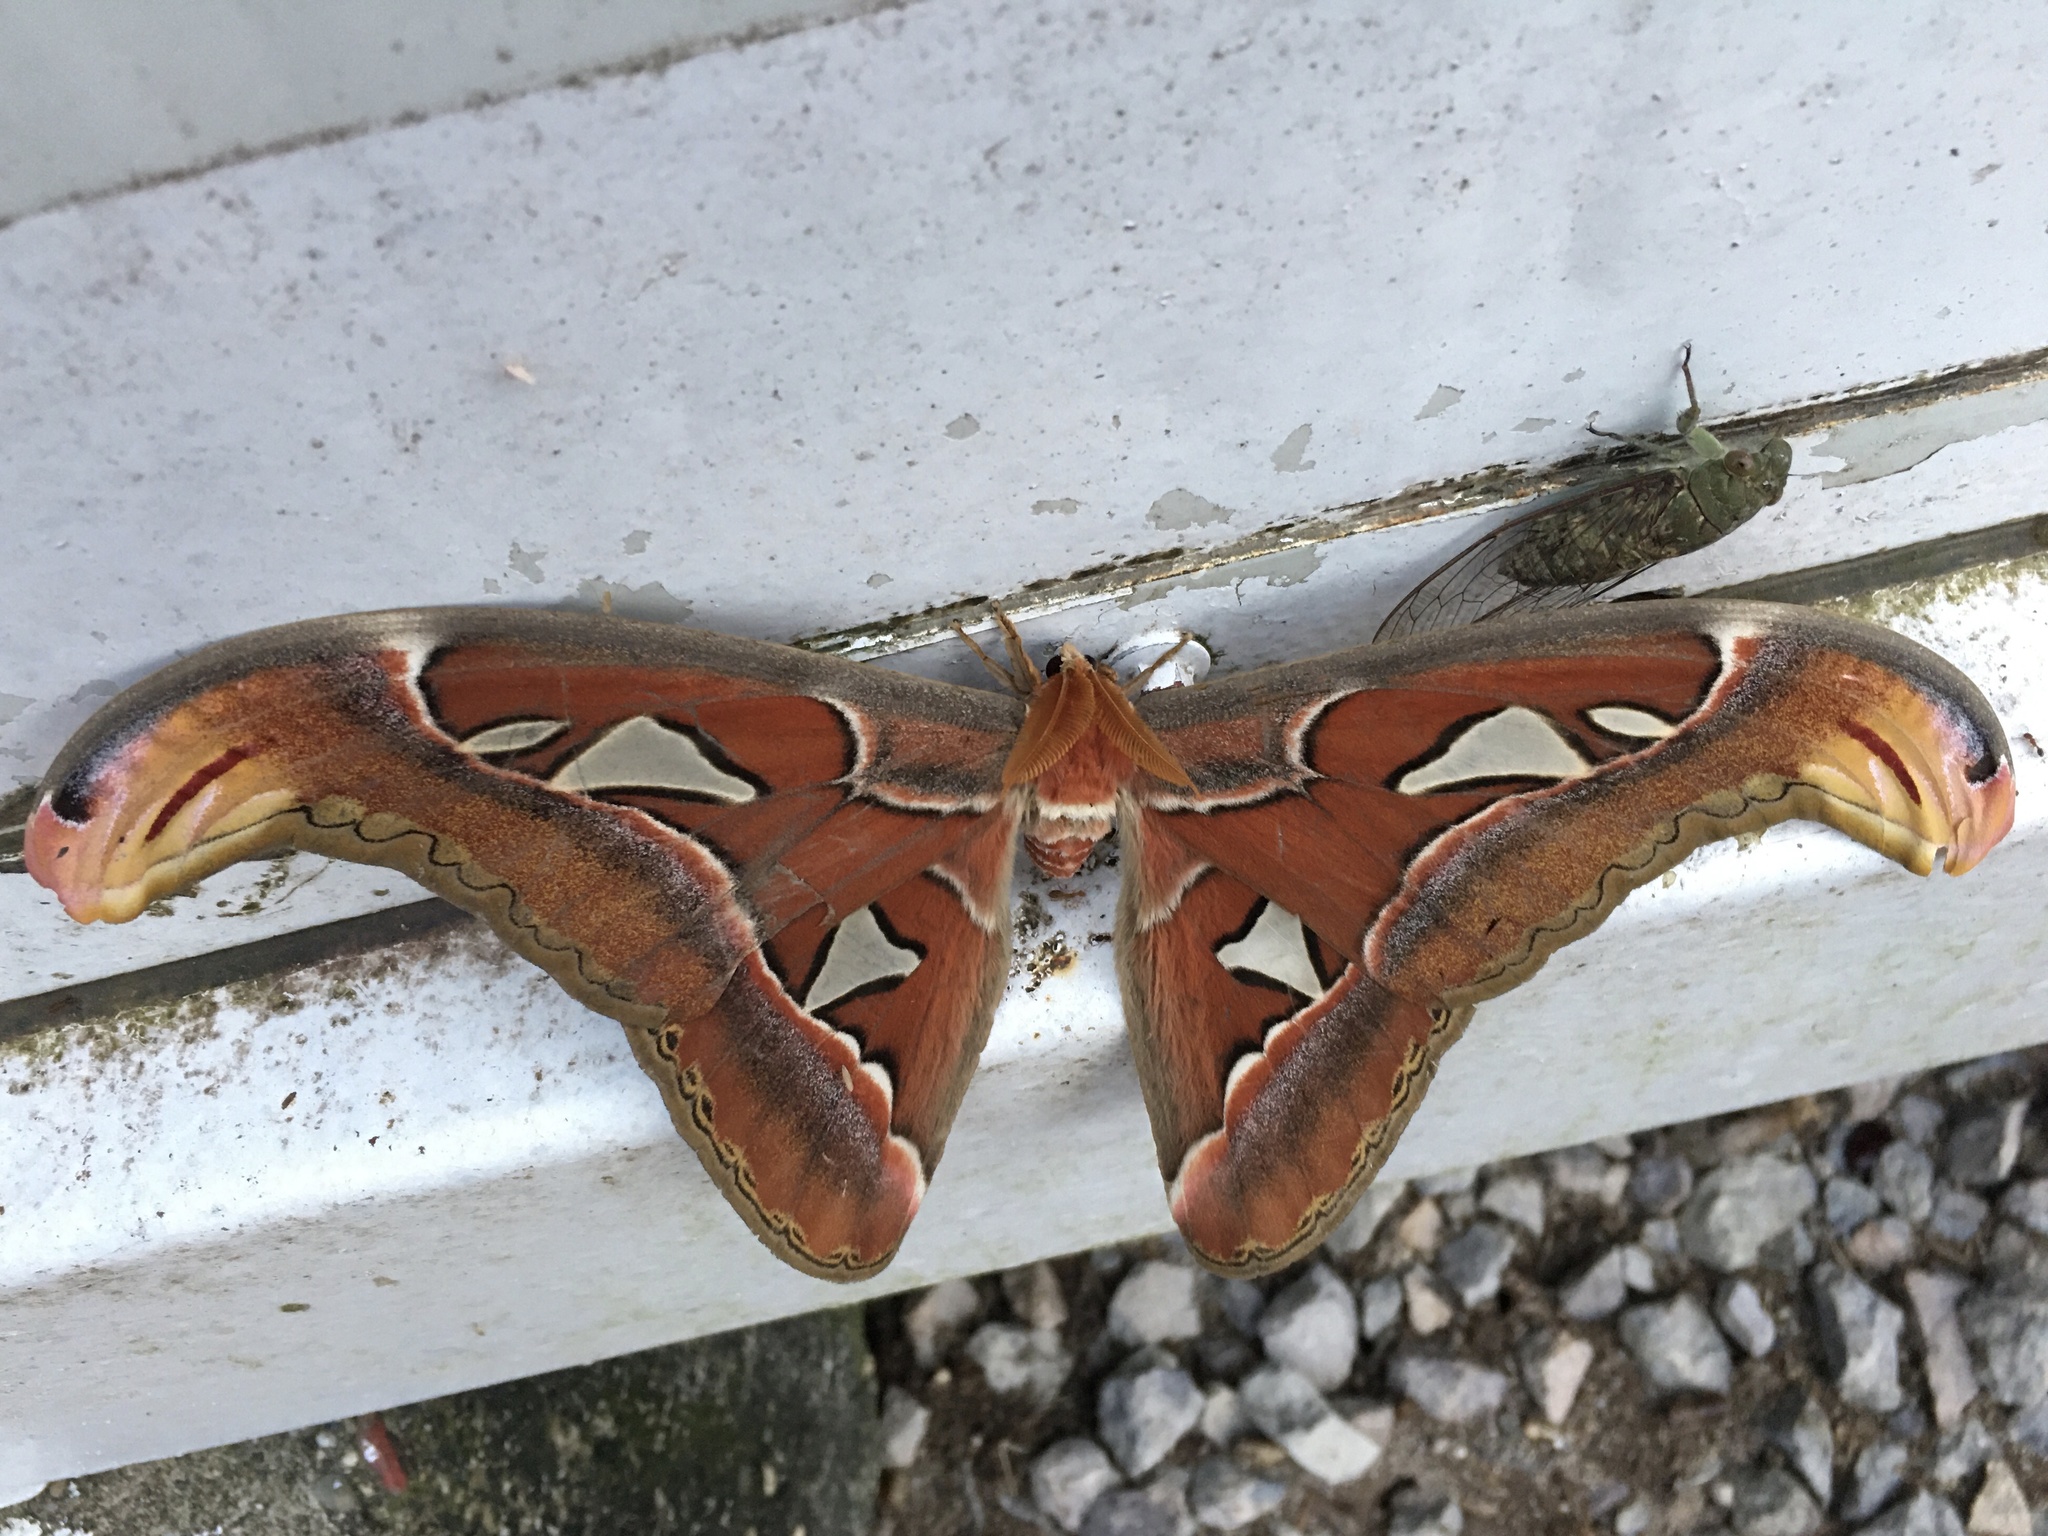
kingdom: Animalia
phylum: Arthropoda
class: Insecta
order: Lepidoptera
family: Saturniidae
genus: Attacus
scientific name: Attacus atlas
